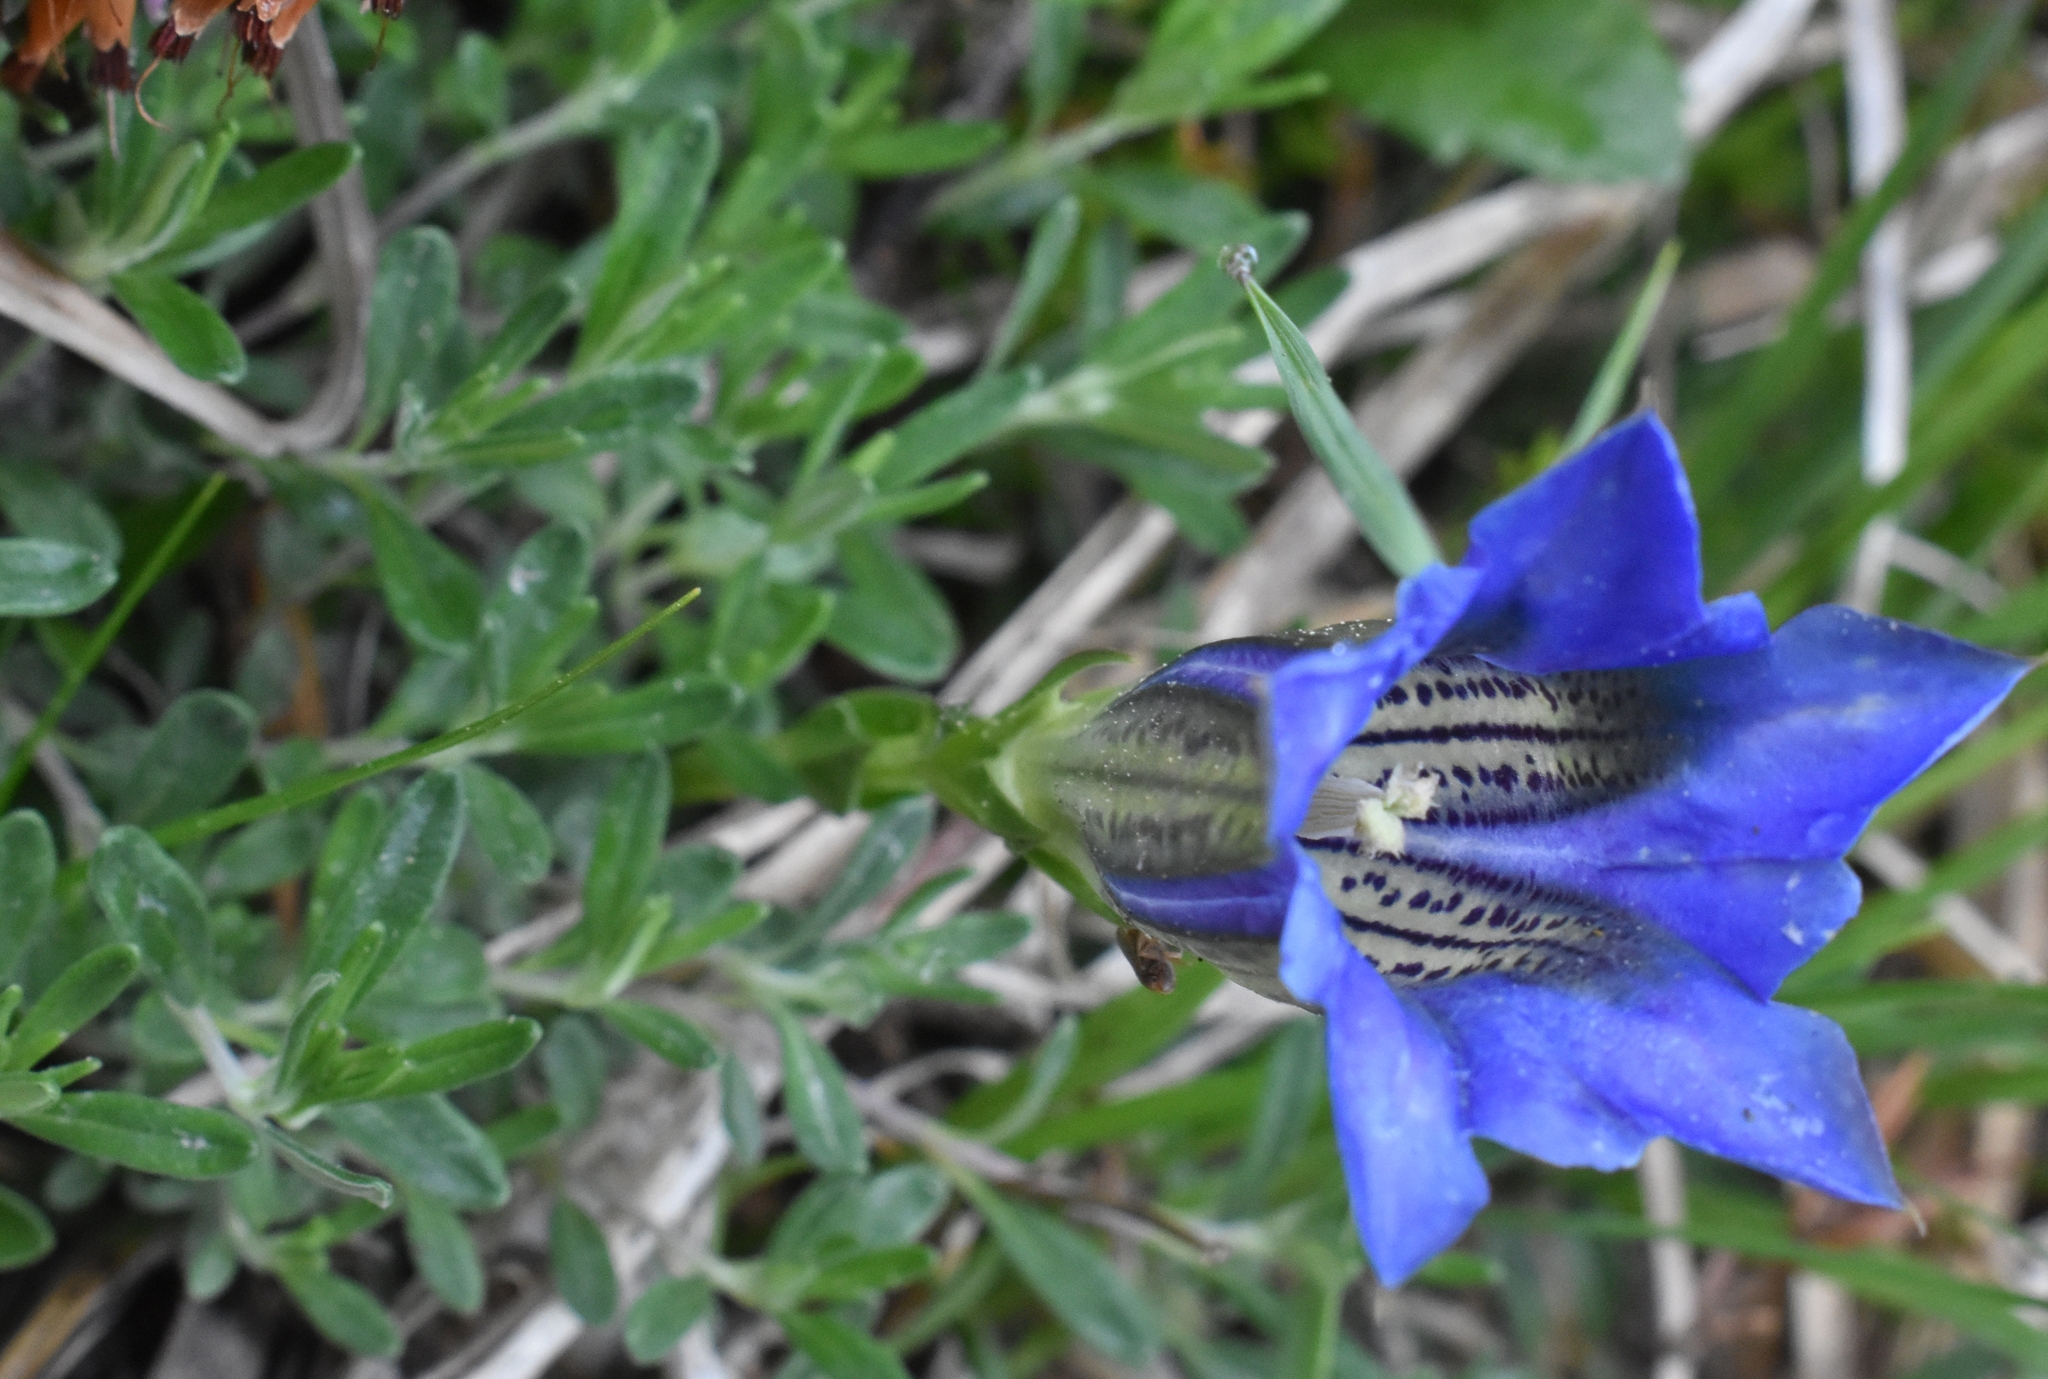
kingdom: Plantae
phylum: Tracheophyta
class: Magnoliopsida
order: Gentianales
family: Gentianaceae
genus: Gentiana
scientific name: Gentiana clusii
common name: Trumpet gentian
